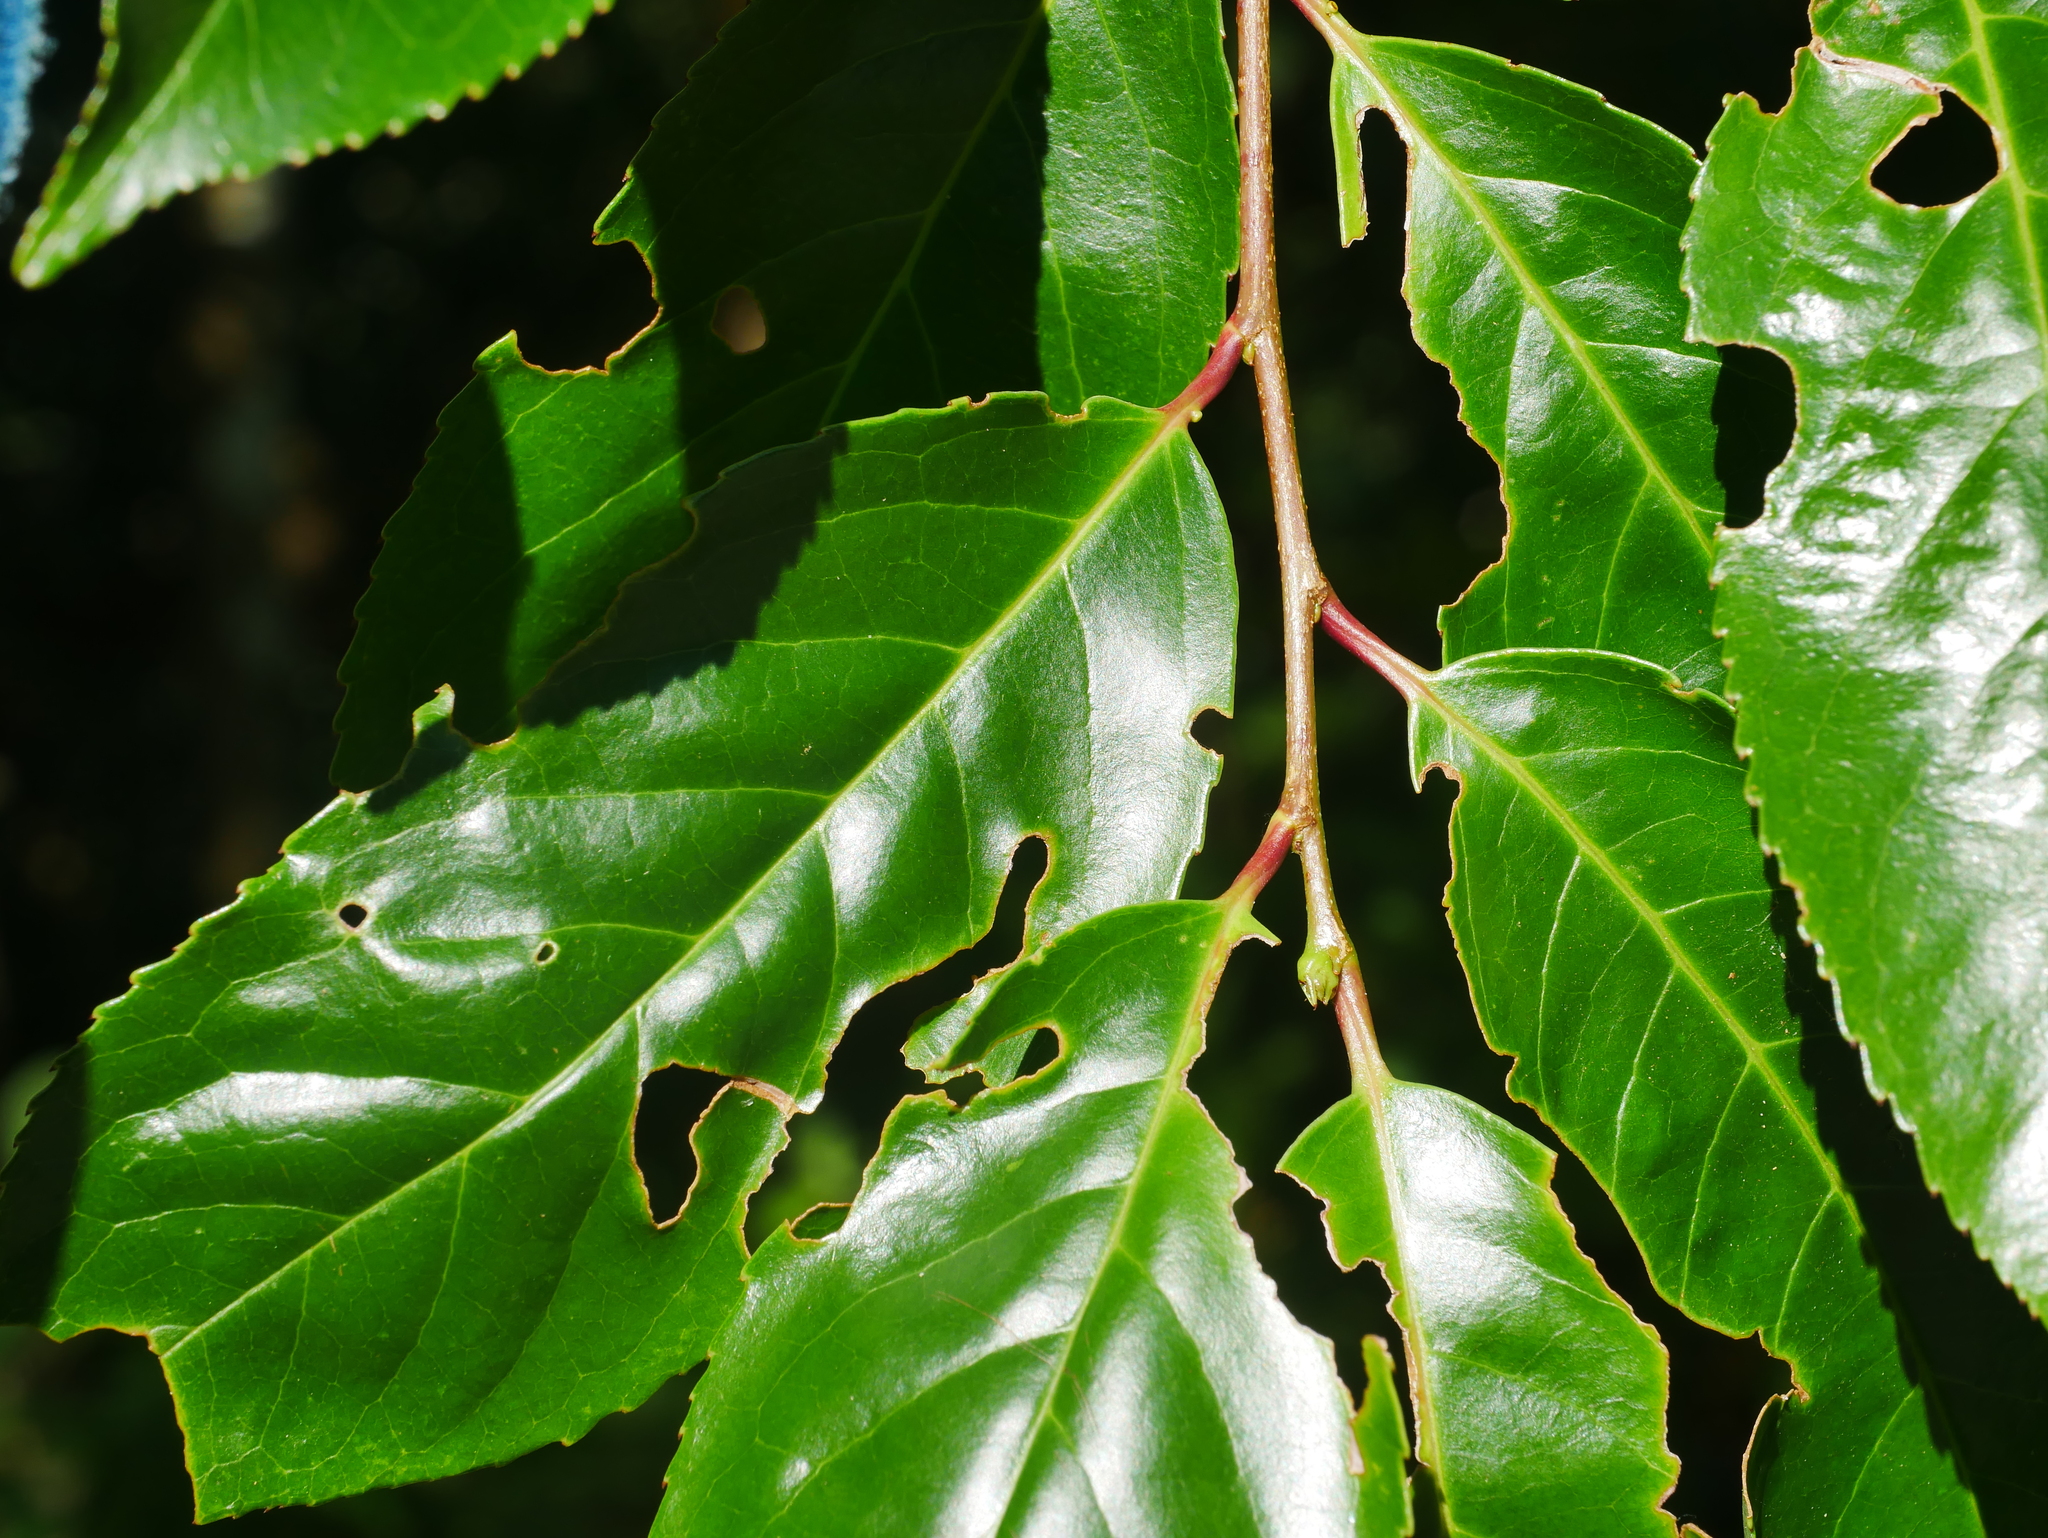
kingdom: Plantae
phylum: Tracheophyta
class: Magnoliopsida
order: Rosales
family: Rosaceae
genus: Prunus
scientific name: Prunus zippeliana
